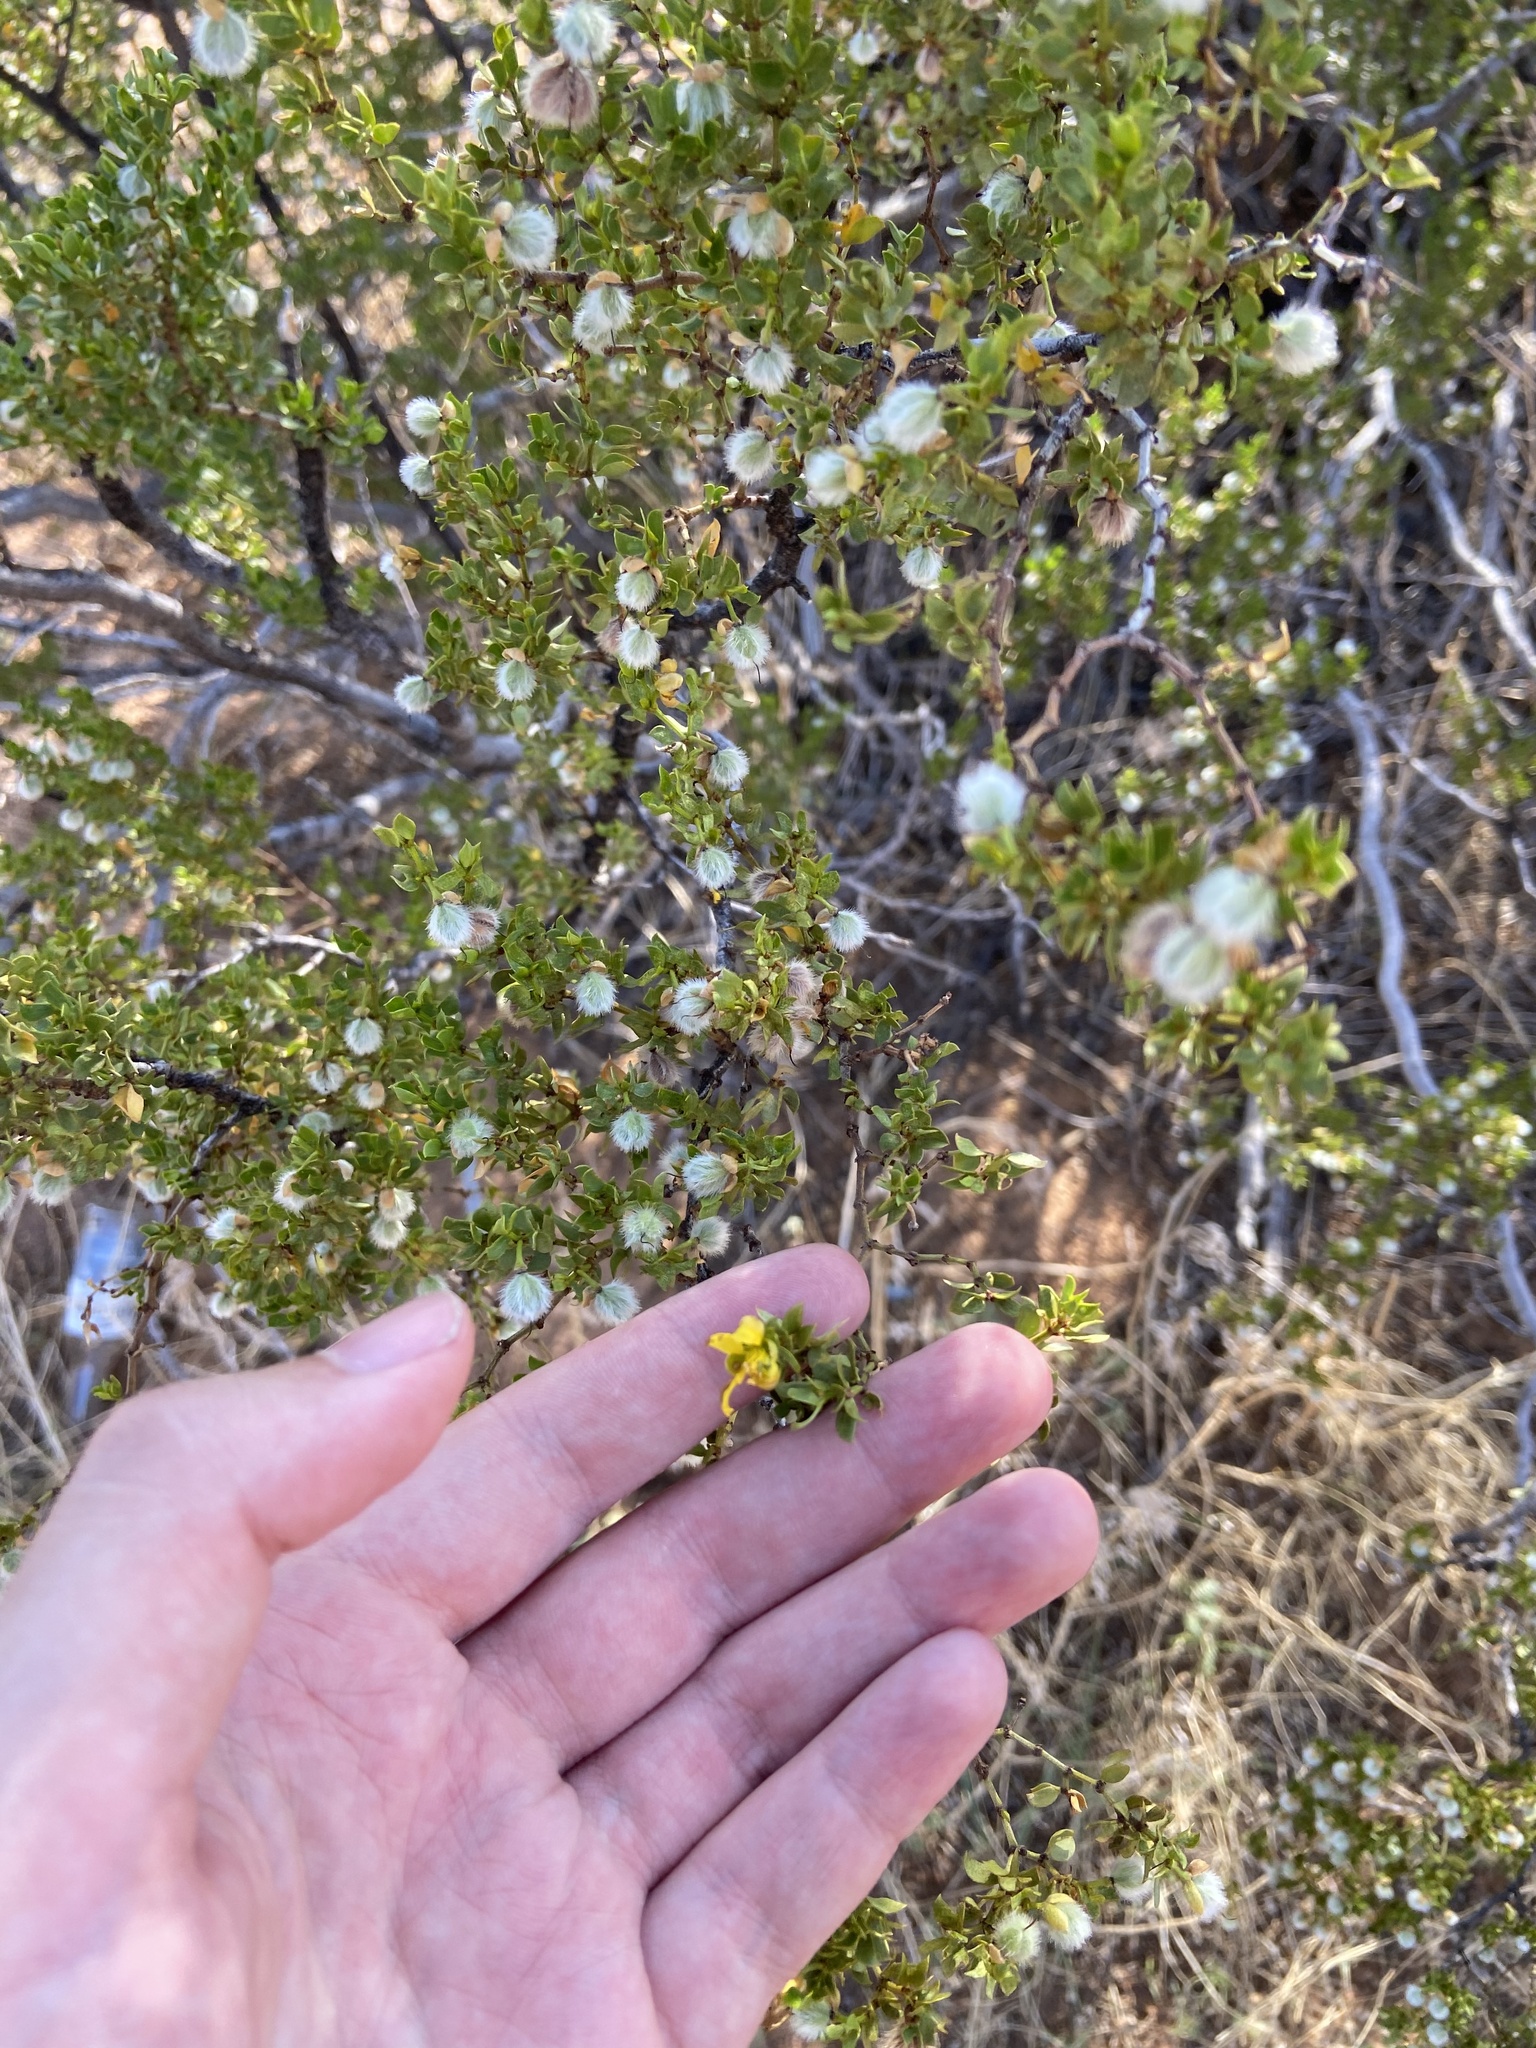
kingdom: Plantae
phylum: Tracheophyta
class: Magnoliopsida
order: Zygophyllales
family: Zygophyllaceae
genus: Larrea
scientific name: Larrea tridentata
